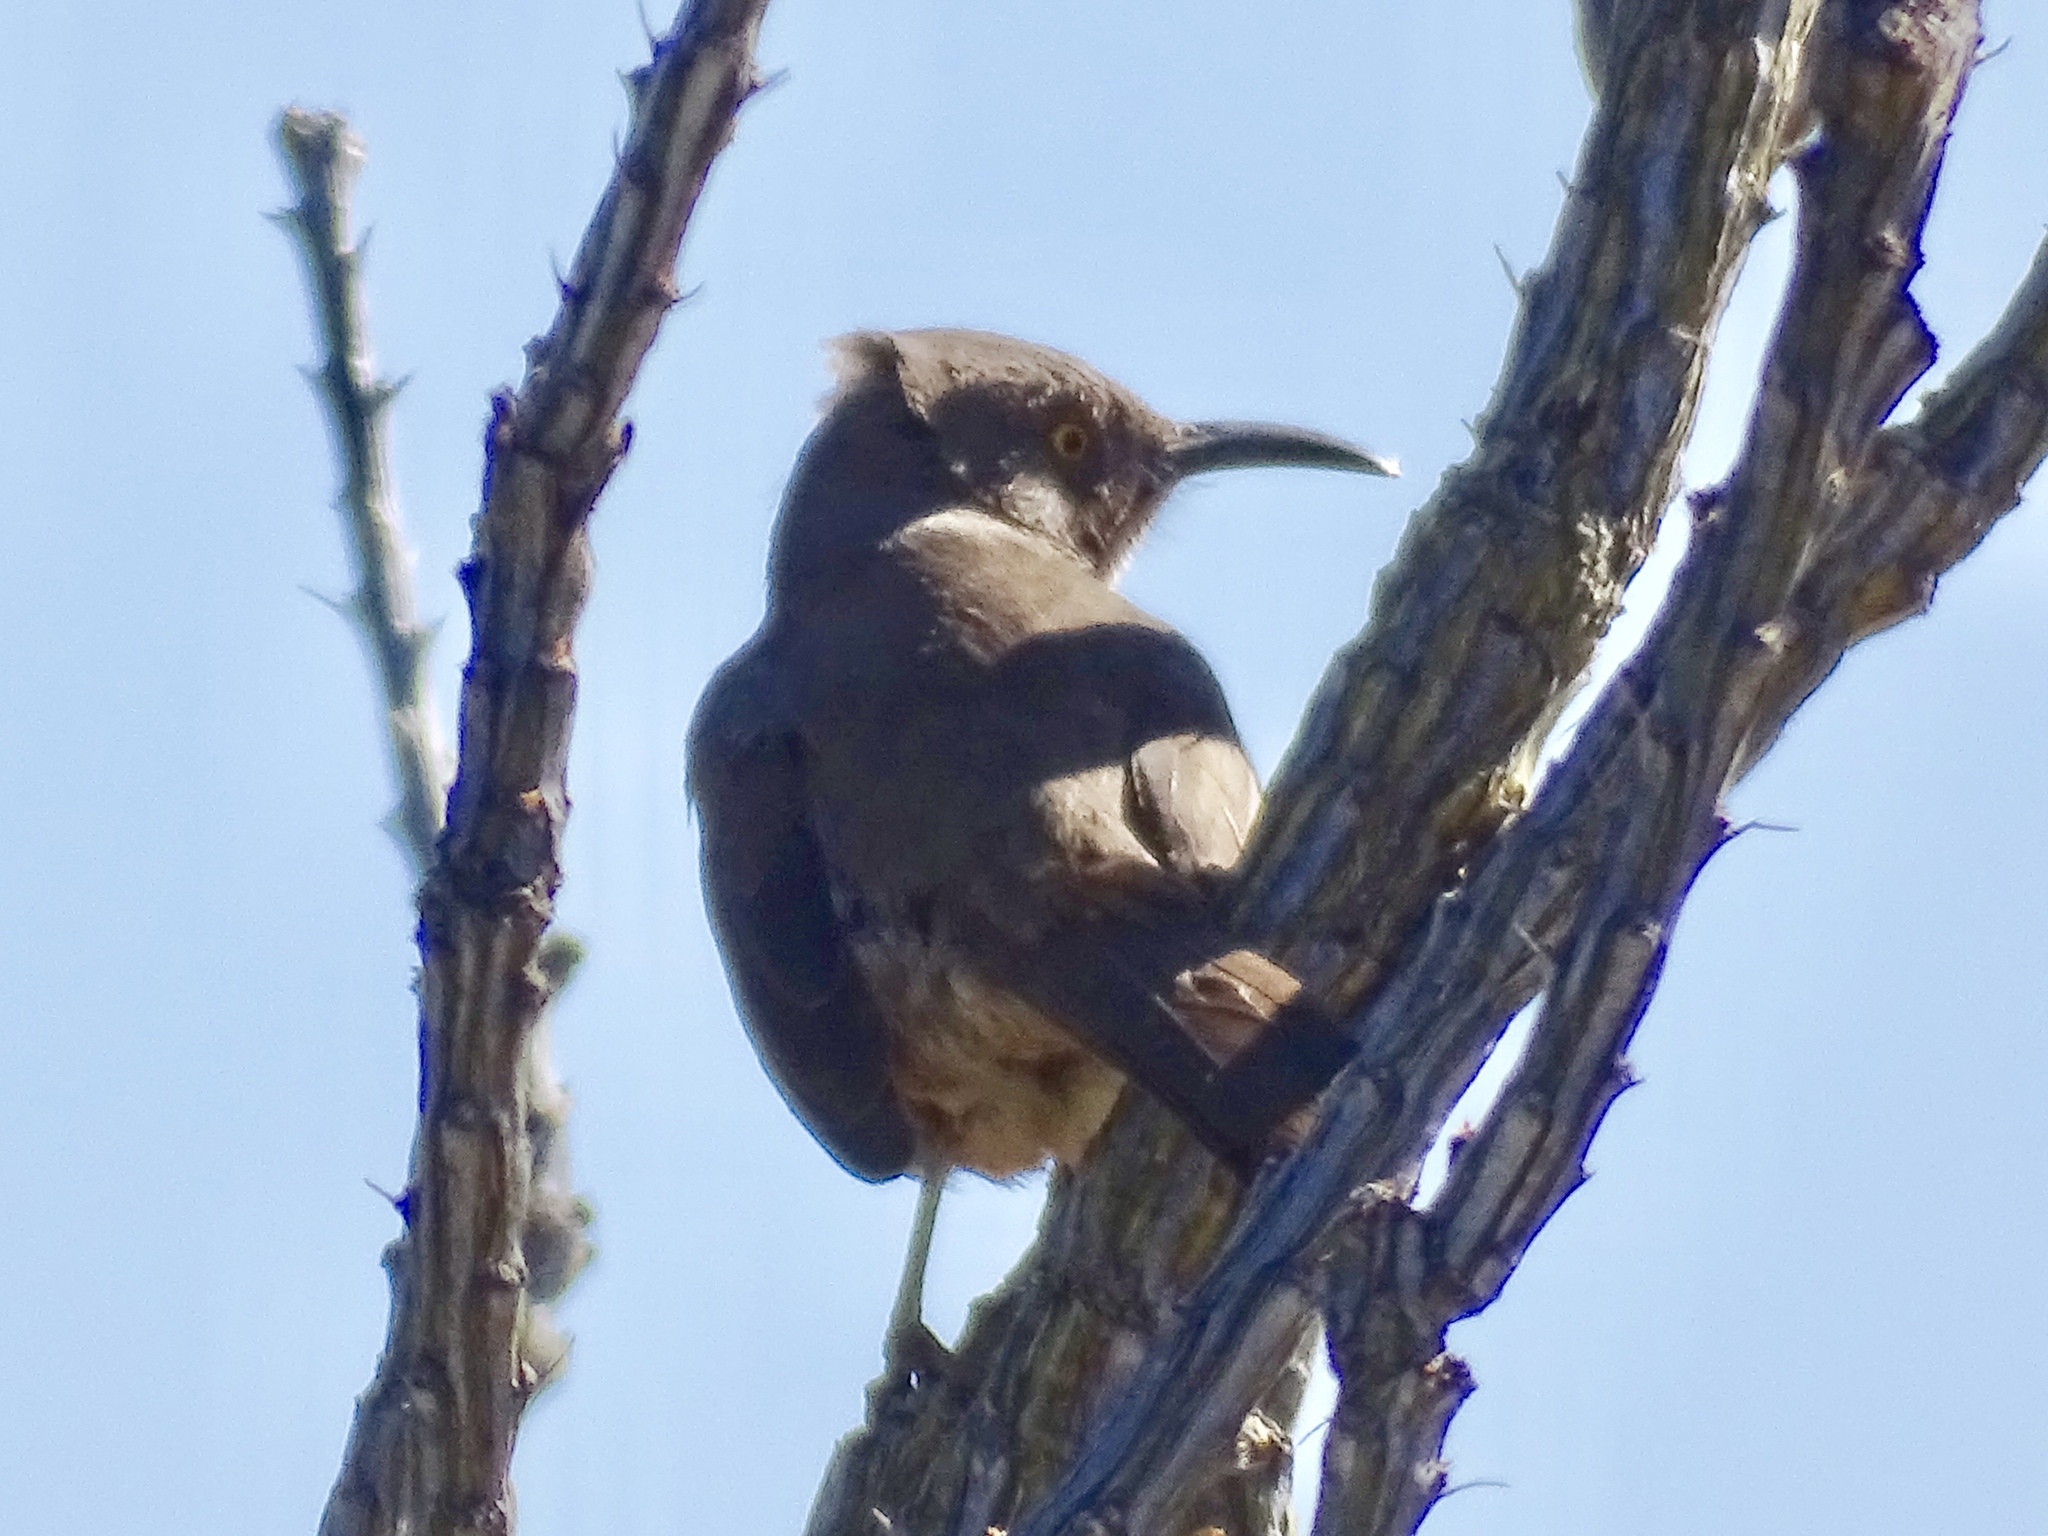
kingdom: Animalia
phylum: Chordata
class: Aves
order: Passeriformes
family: Mimidae
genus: Toxostoma
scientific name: Toxostoma curvirostre
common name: Curve-billed thrasher
